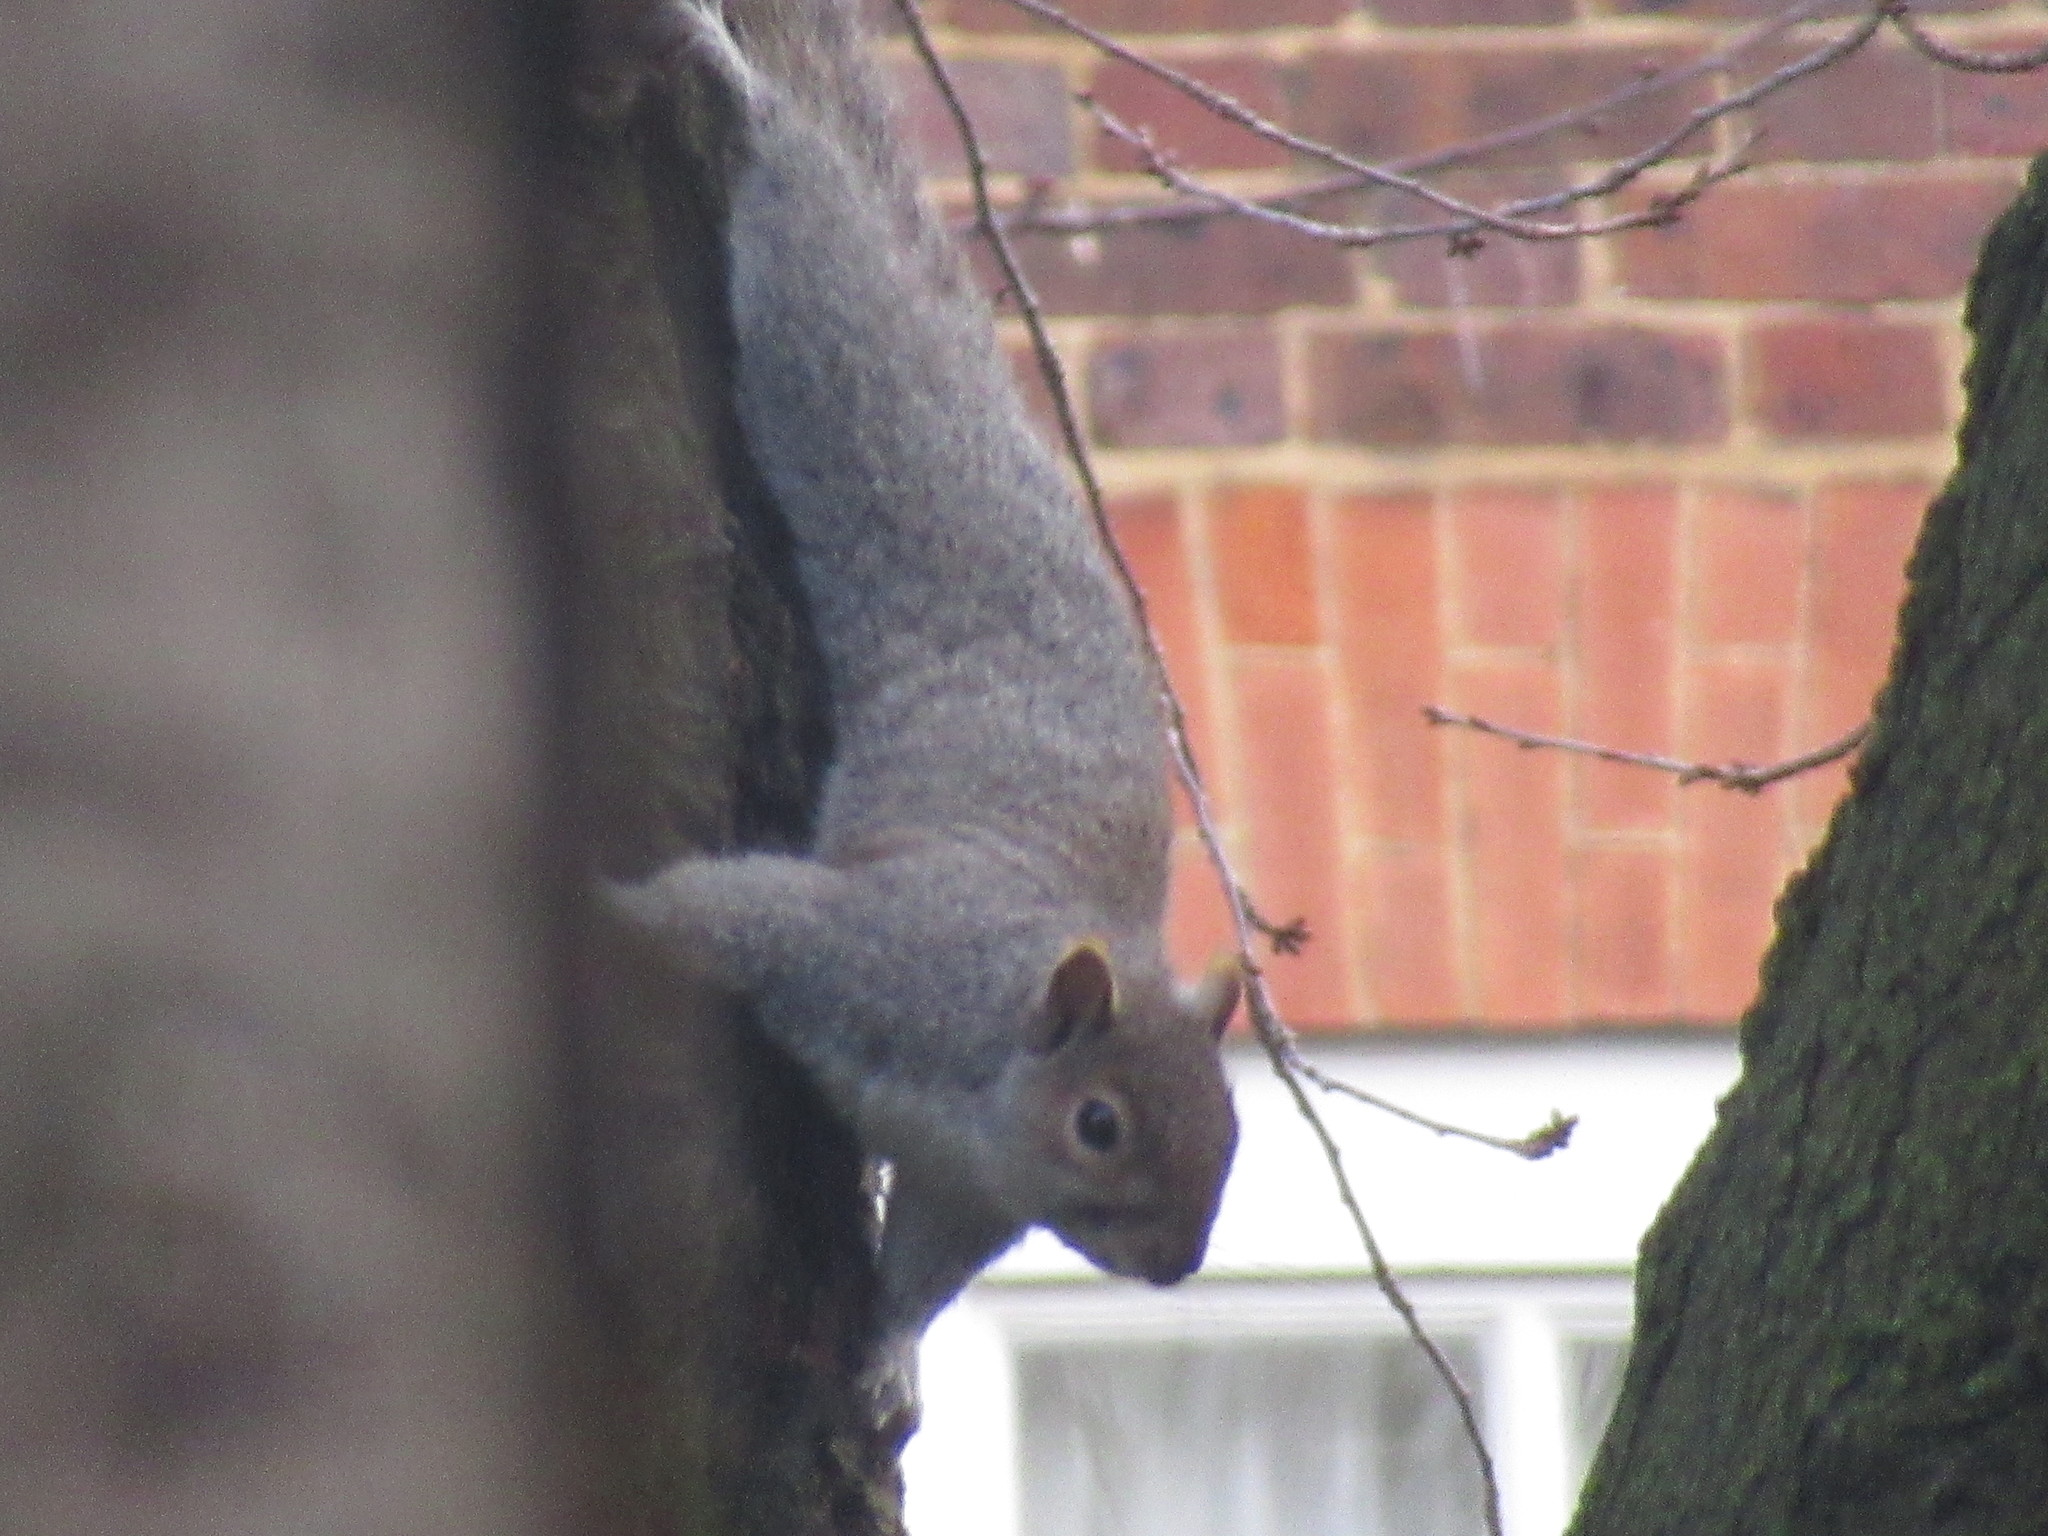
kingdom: Animalia
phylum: Chordata
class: Mammalia
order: Rodentia
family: Sciuridae
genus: Sciurus
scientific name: Sciurus carolinensis
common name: Eastern gray squirrel
